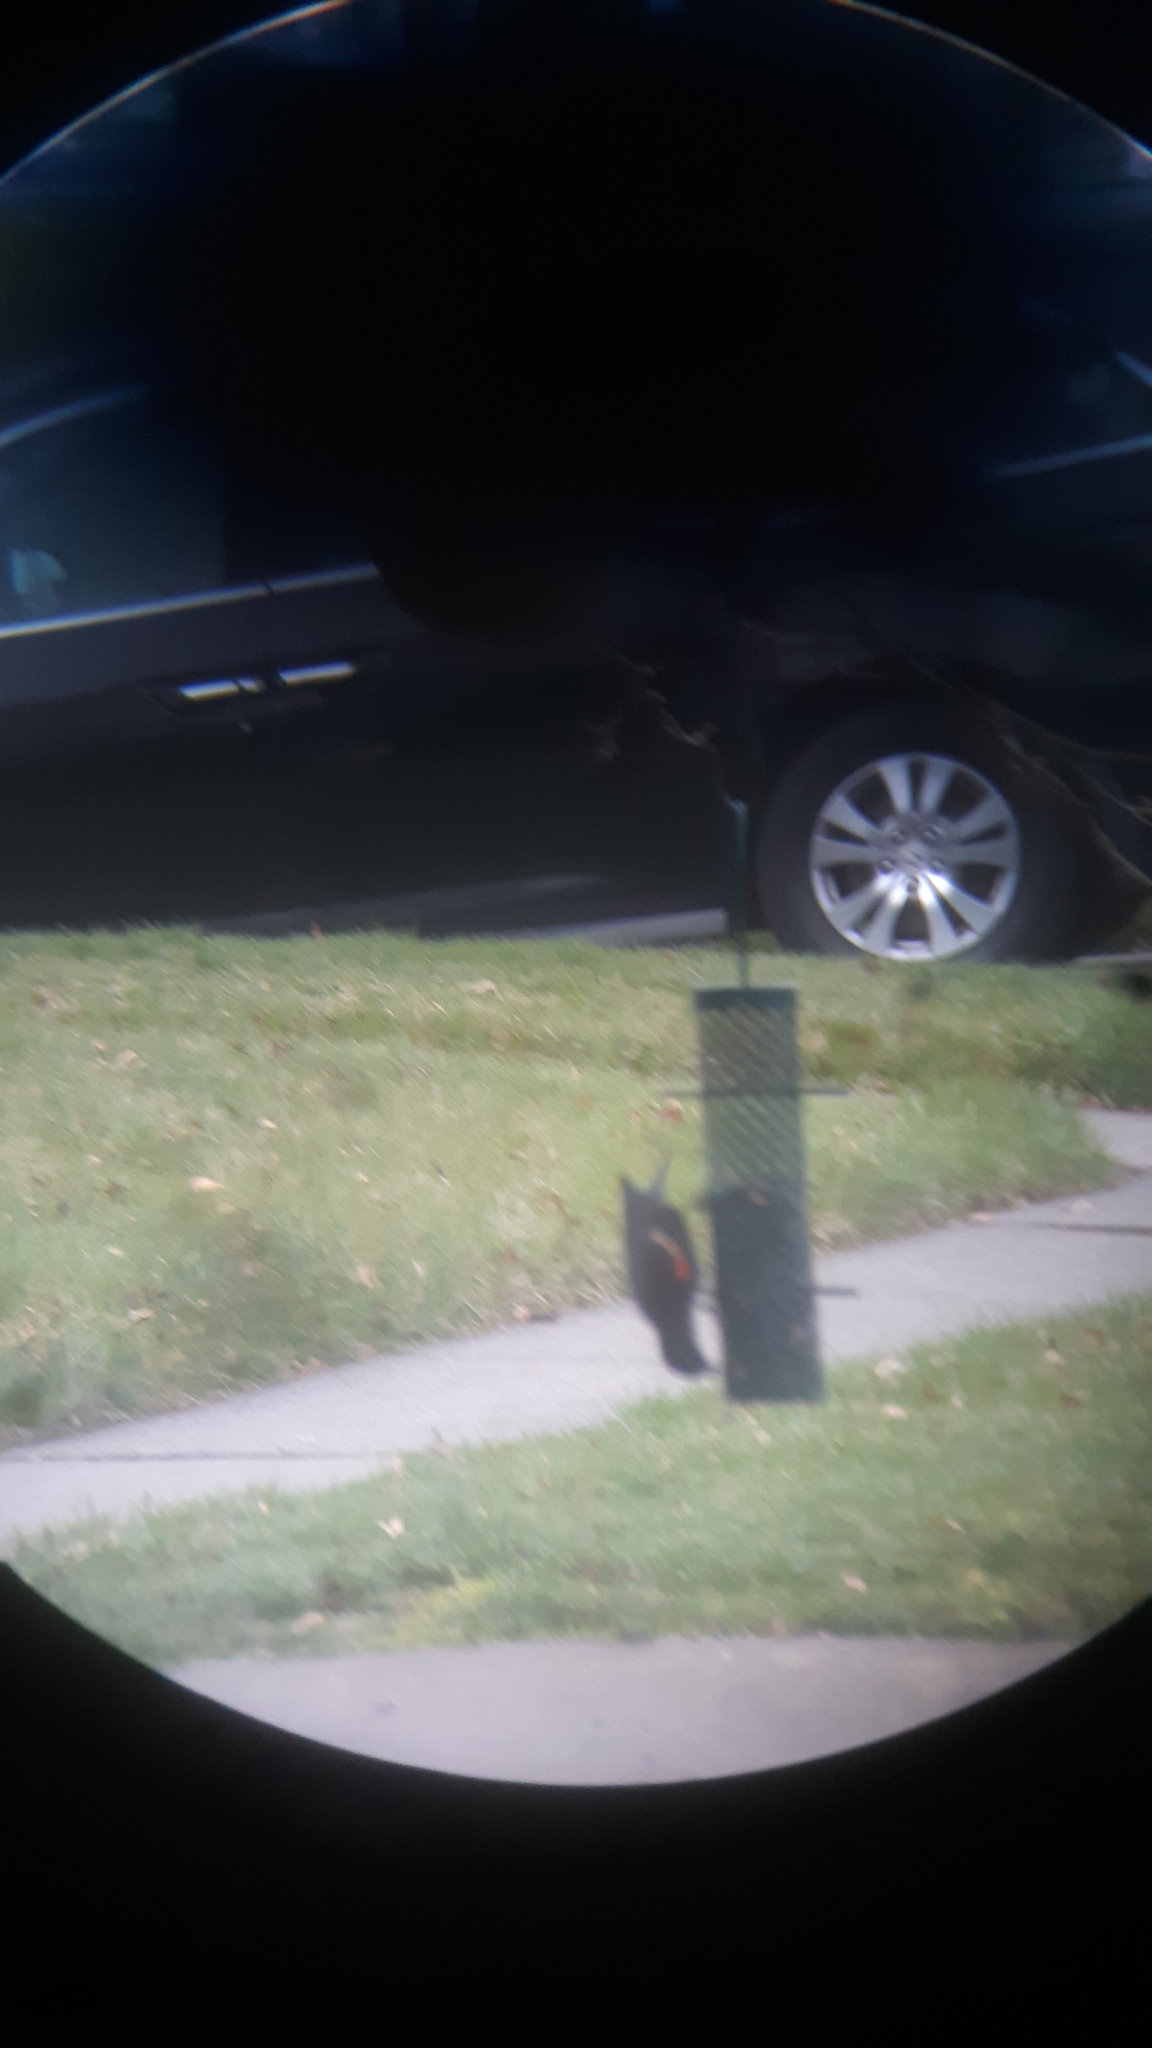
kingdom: Animalia
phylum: Chordata
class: Aves
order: Passeriformes
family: Icteridae
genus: Agelaius
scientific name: Agelaius phoeniceus
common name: Red-winged blackbird
